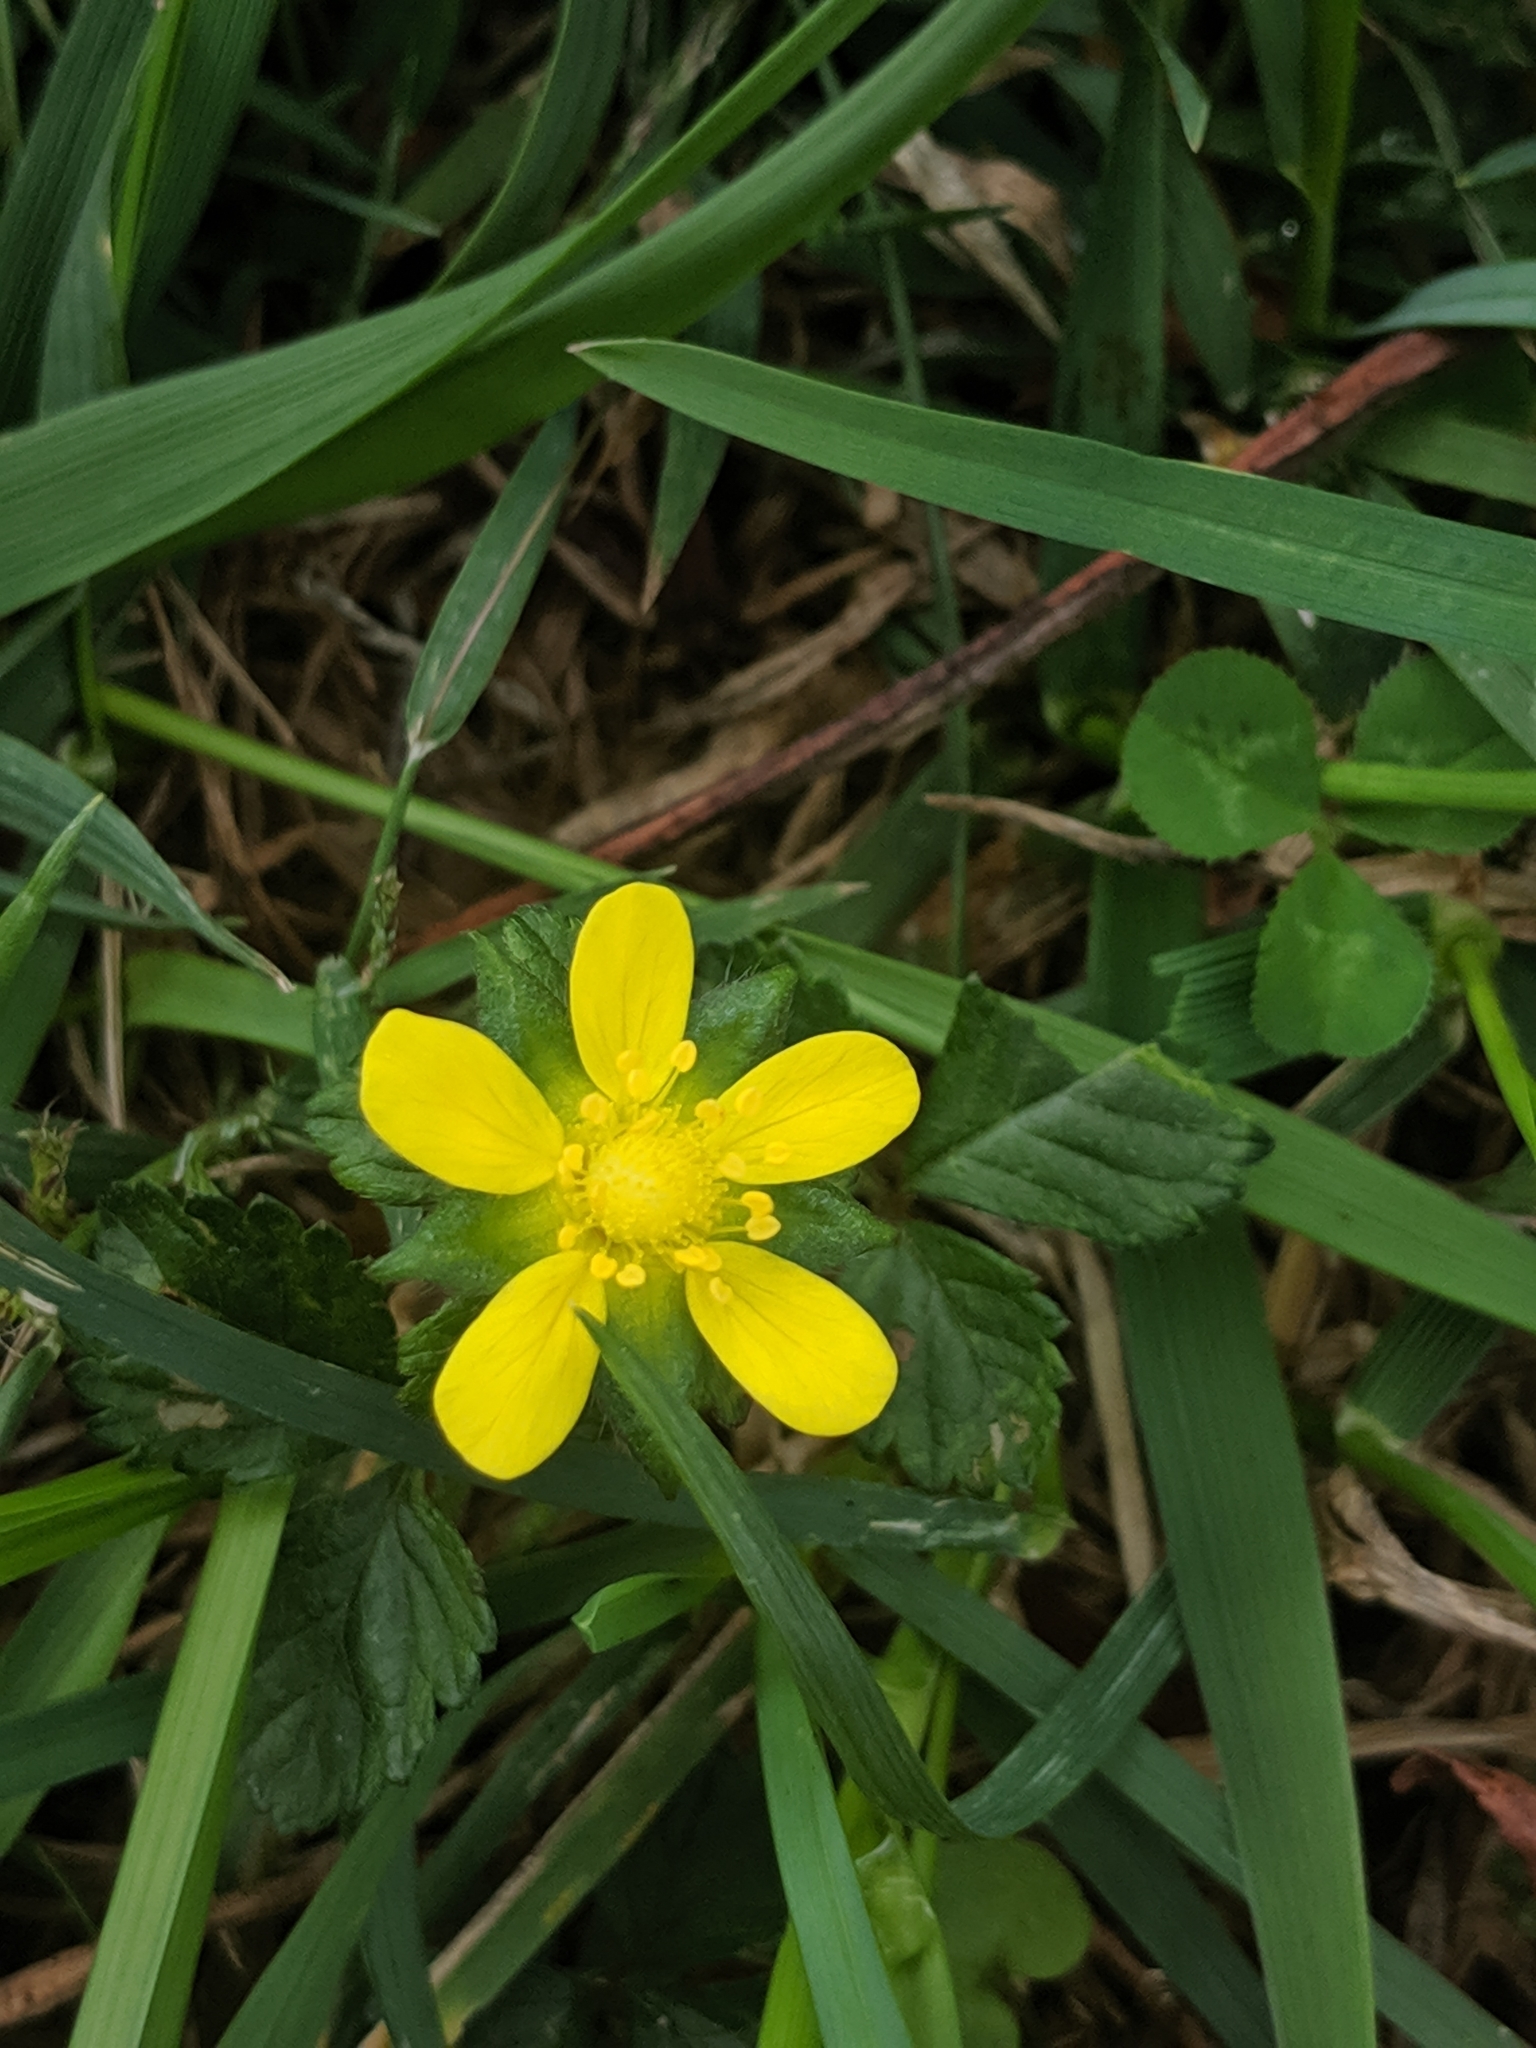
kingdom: Plantae
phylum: Tracheophyta
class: Magnoliopsida
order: Rosales
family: Rosaceae
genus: Potentilla
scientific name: Potentilla indica
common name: Yellow-flowered strawberry
